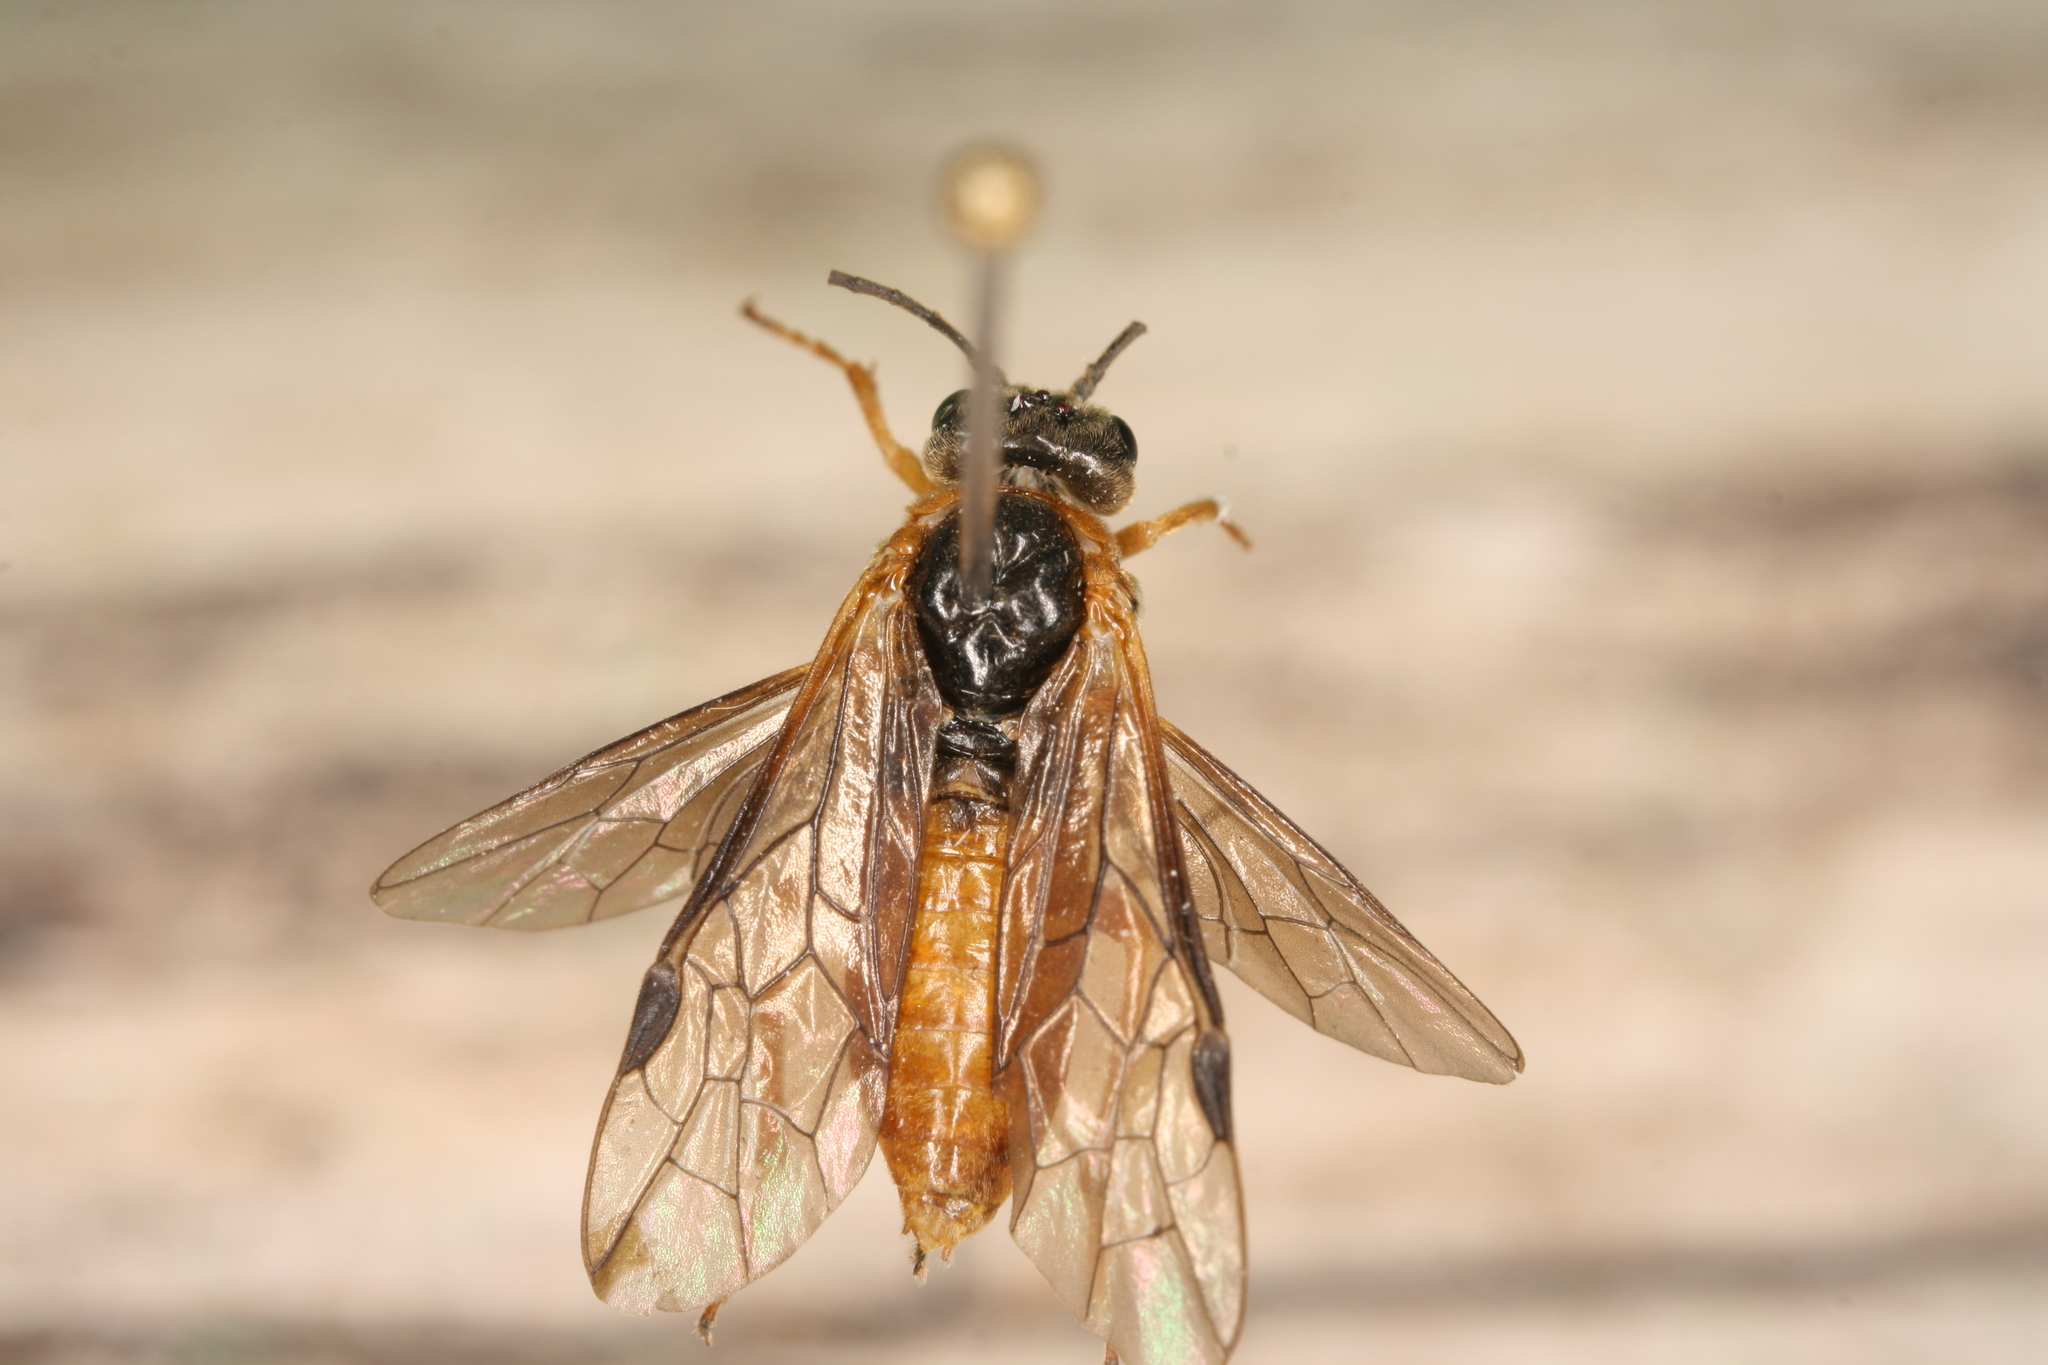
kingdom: Animalia
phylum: Arthropoda
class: Insecta
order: Hymenoptera
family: Tenthredinidae
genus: Monostegia
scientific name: Monostegia abdominalis
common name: Tenthredid wasp
